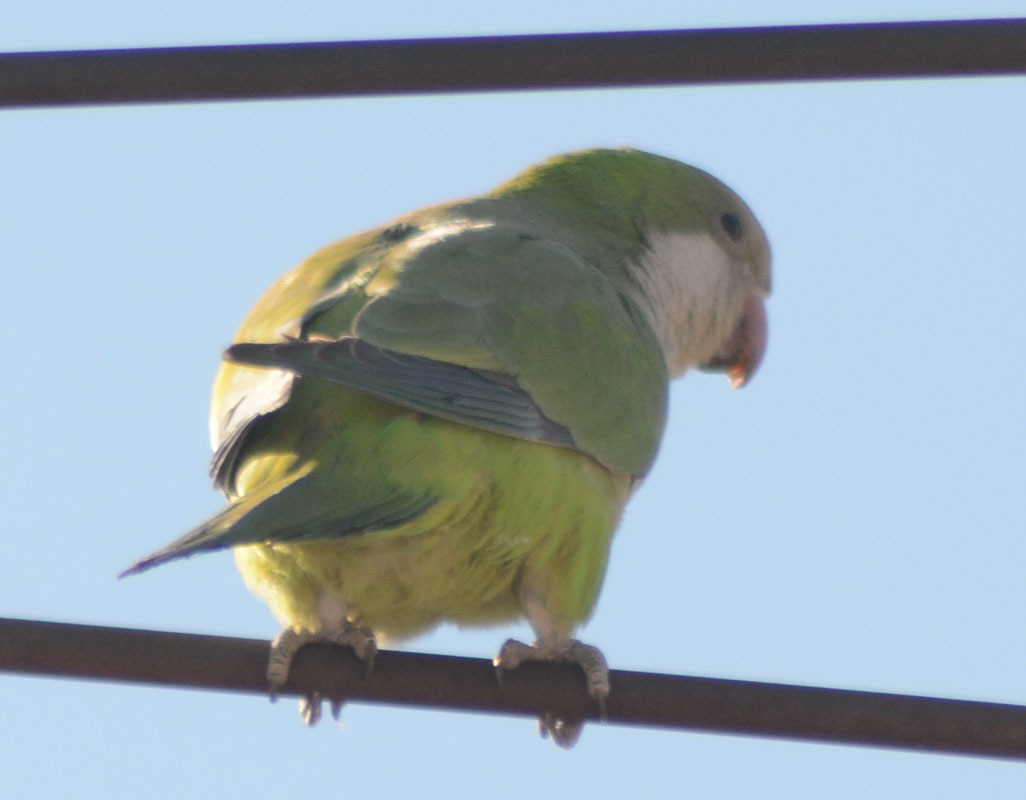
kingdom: Animalia
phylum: Chordata
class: Aves
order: Psittaciformes
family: Psittacidae
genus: Myiopsitta
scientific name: Myiopsitta monachus
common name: Monk parakeet
